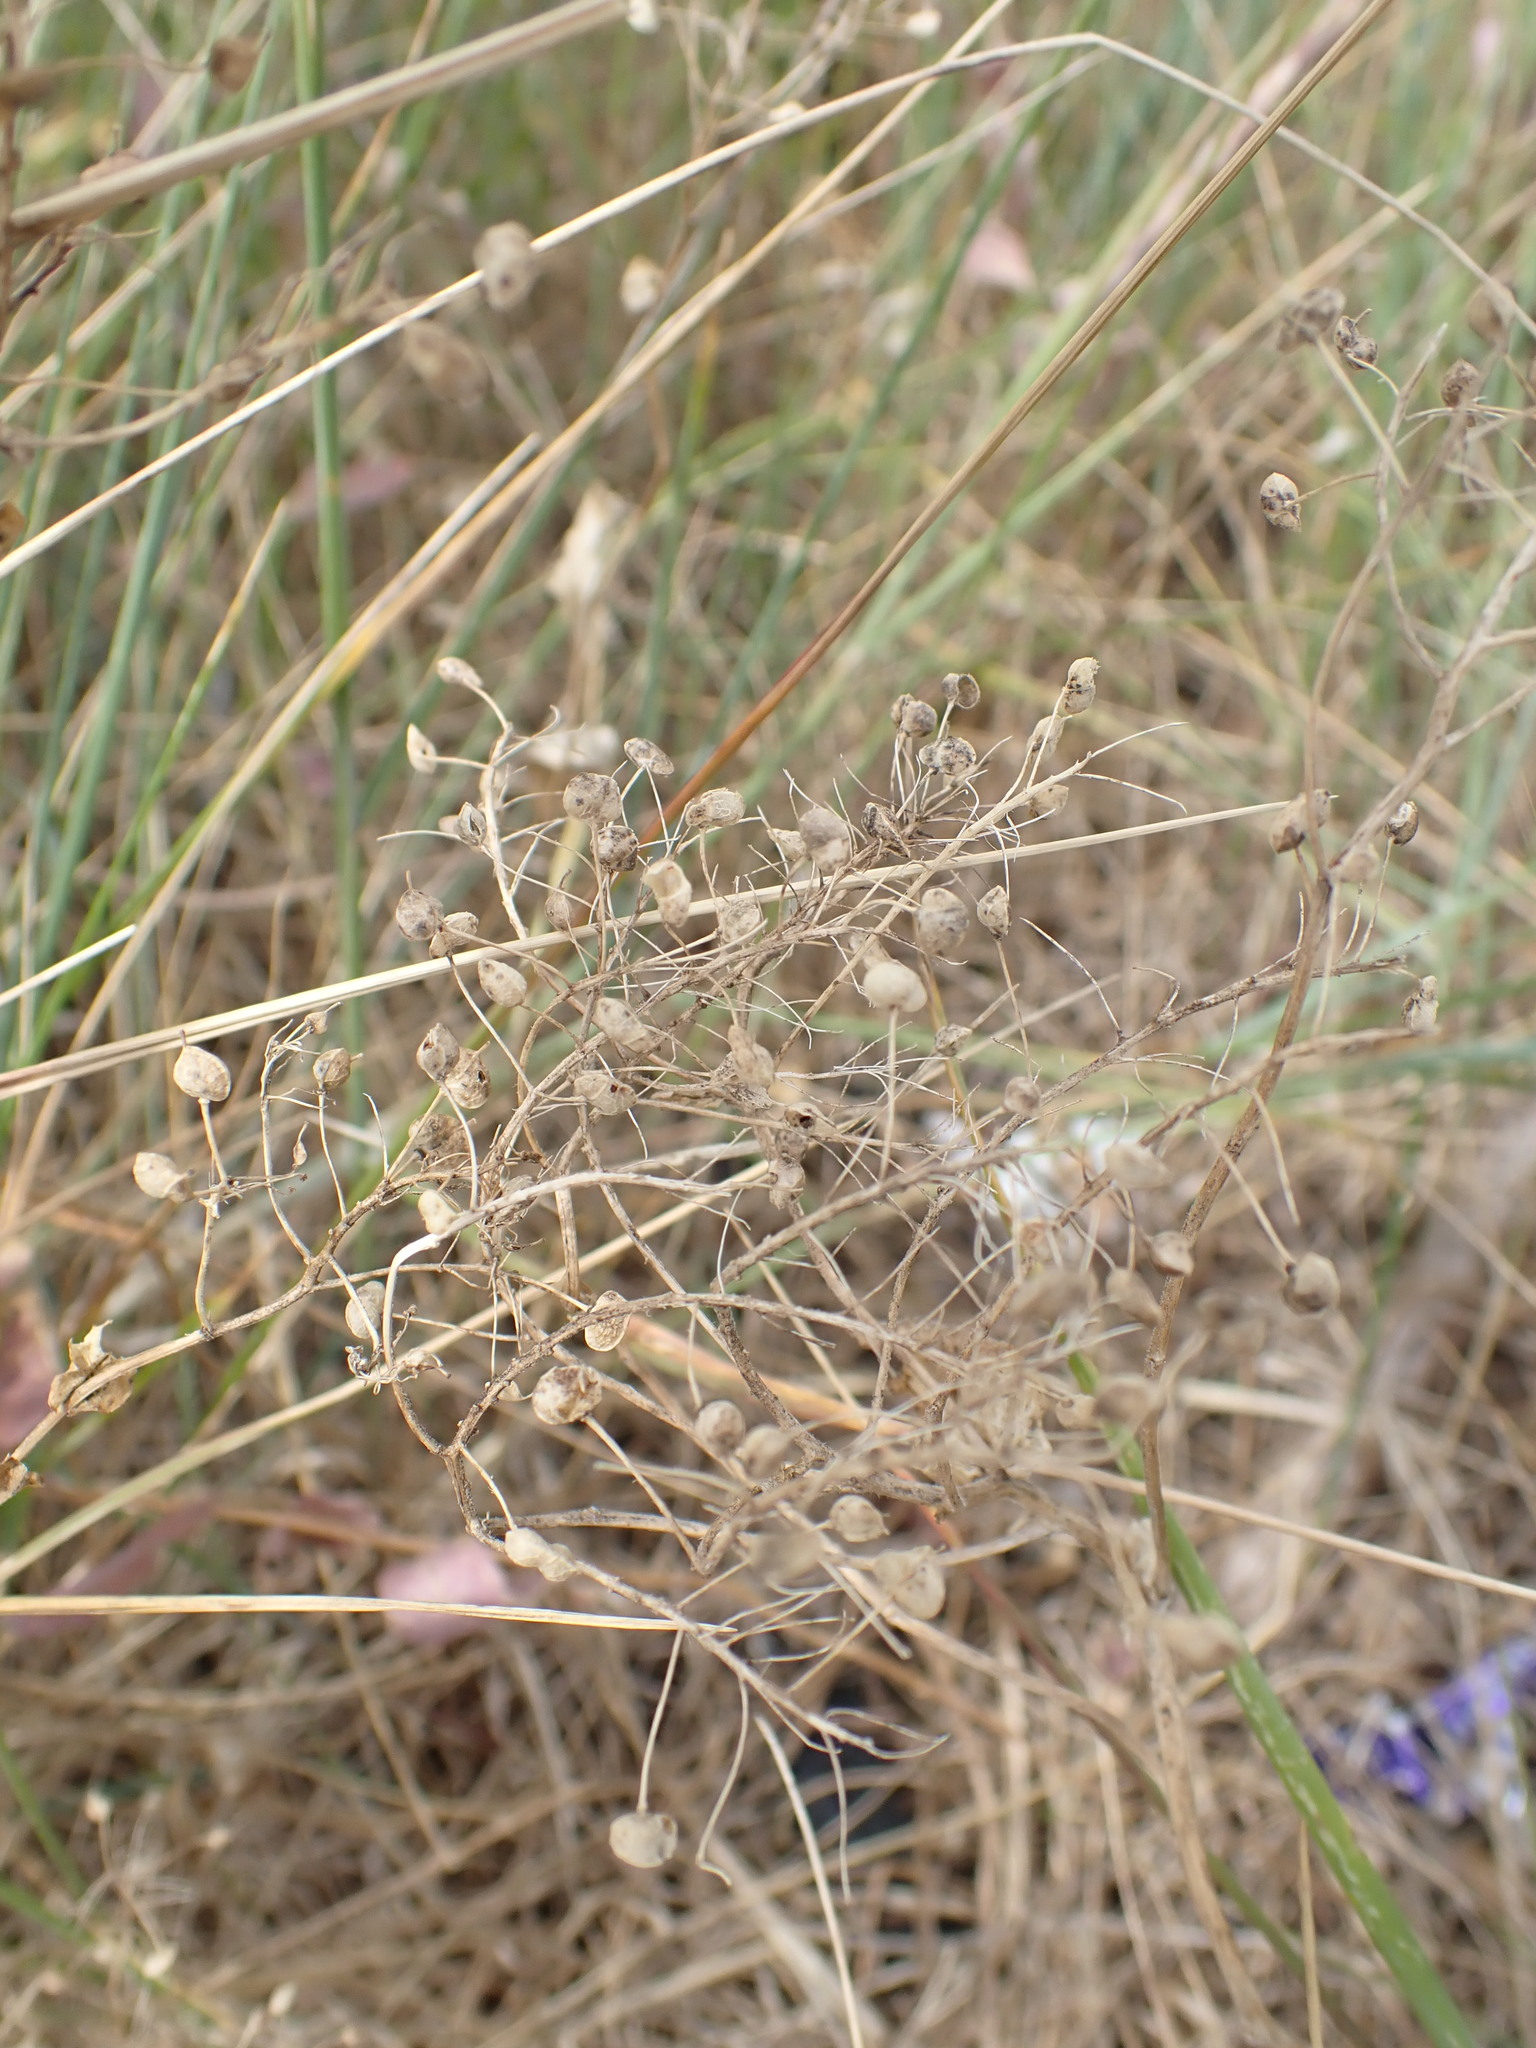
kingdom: Plantae
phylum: Tracheophyta
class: Magnoliopsida
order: Brassicales
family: Brassicaceae
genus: Lepidium
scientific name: Lepidium draba
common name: Hoary cress
